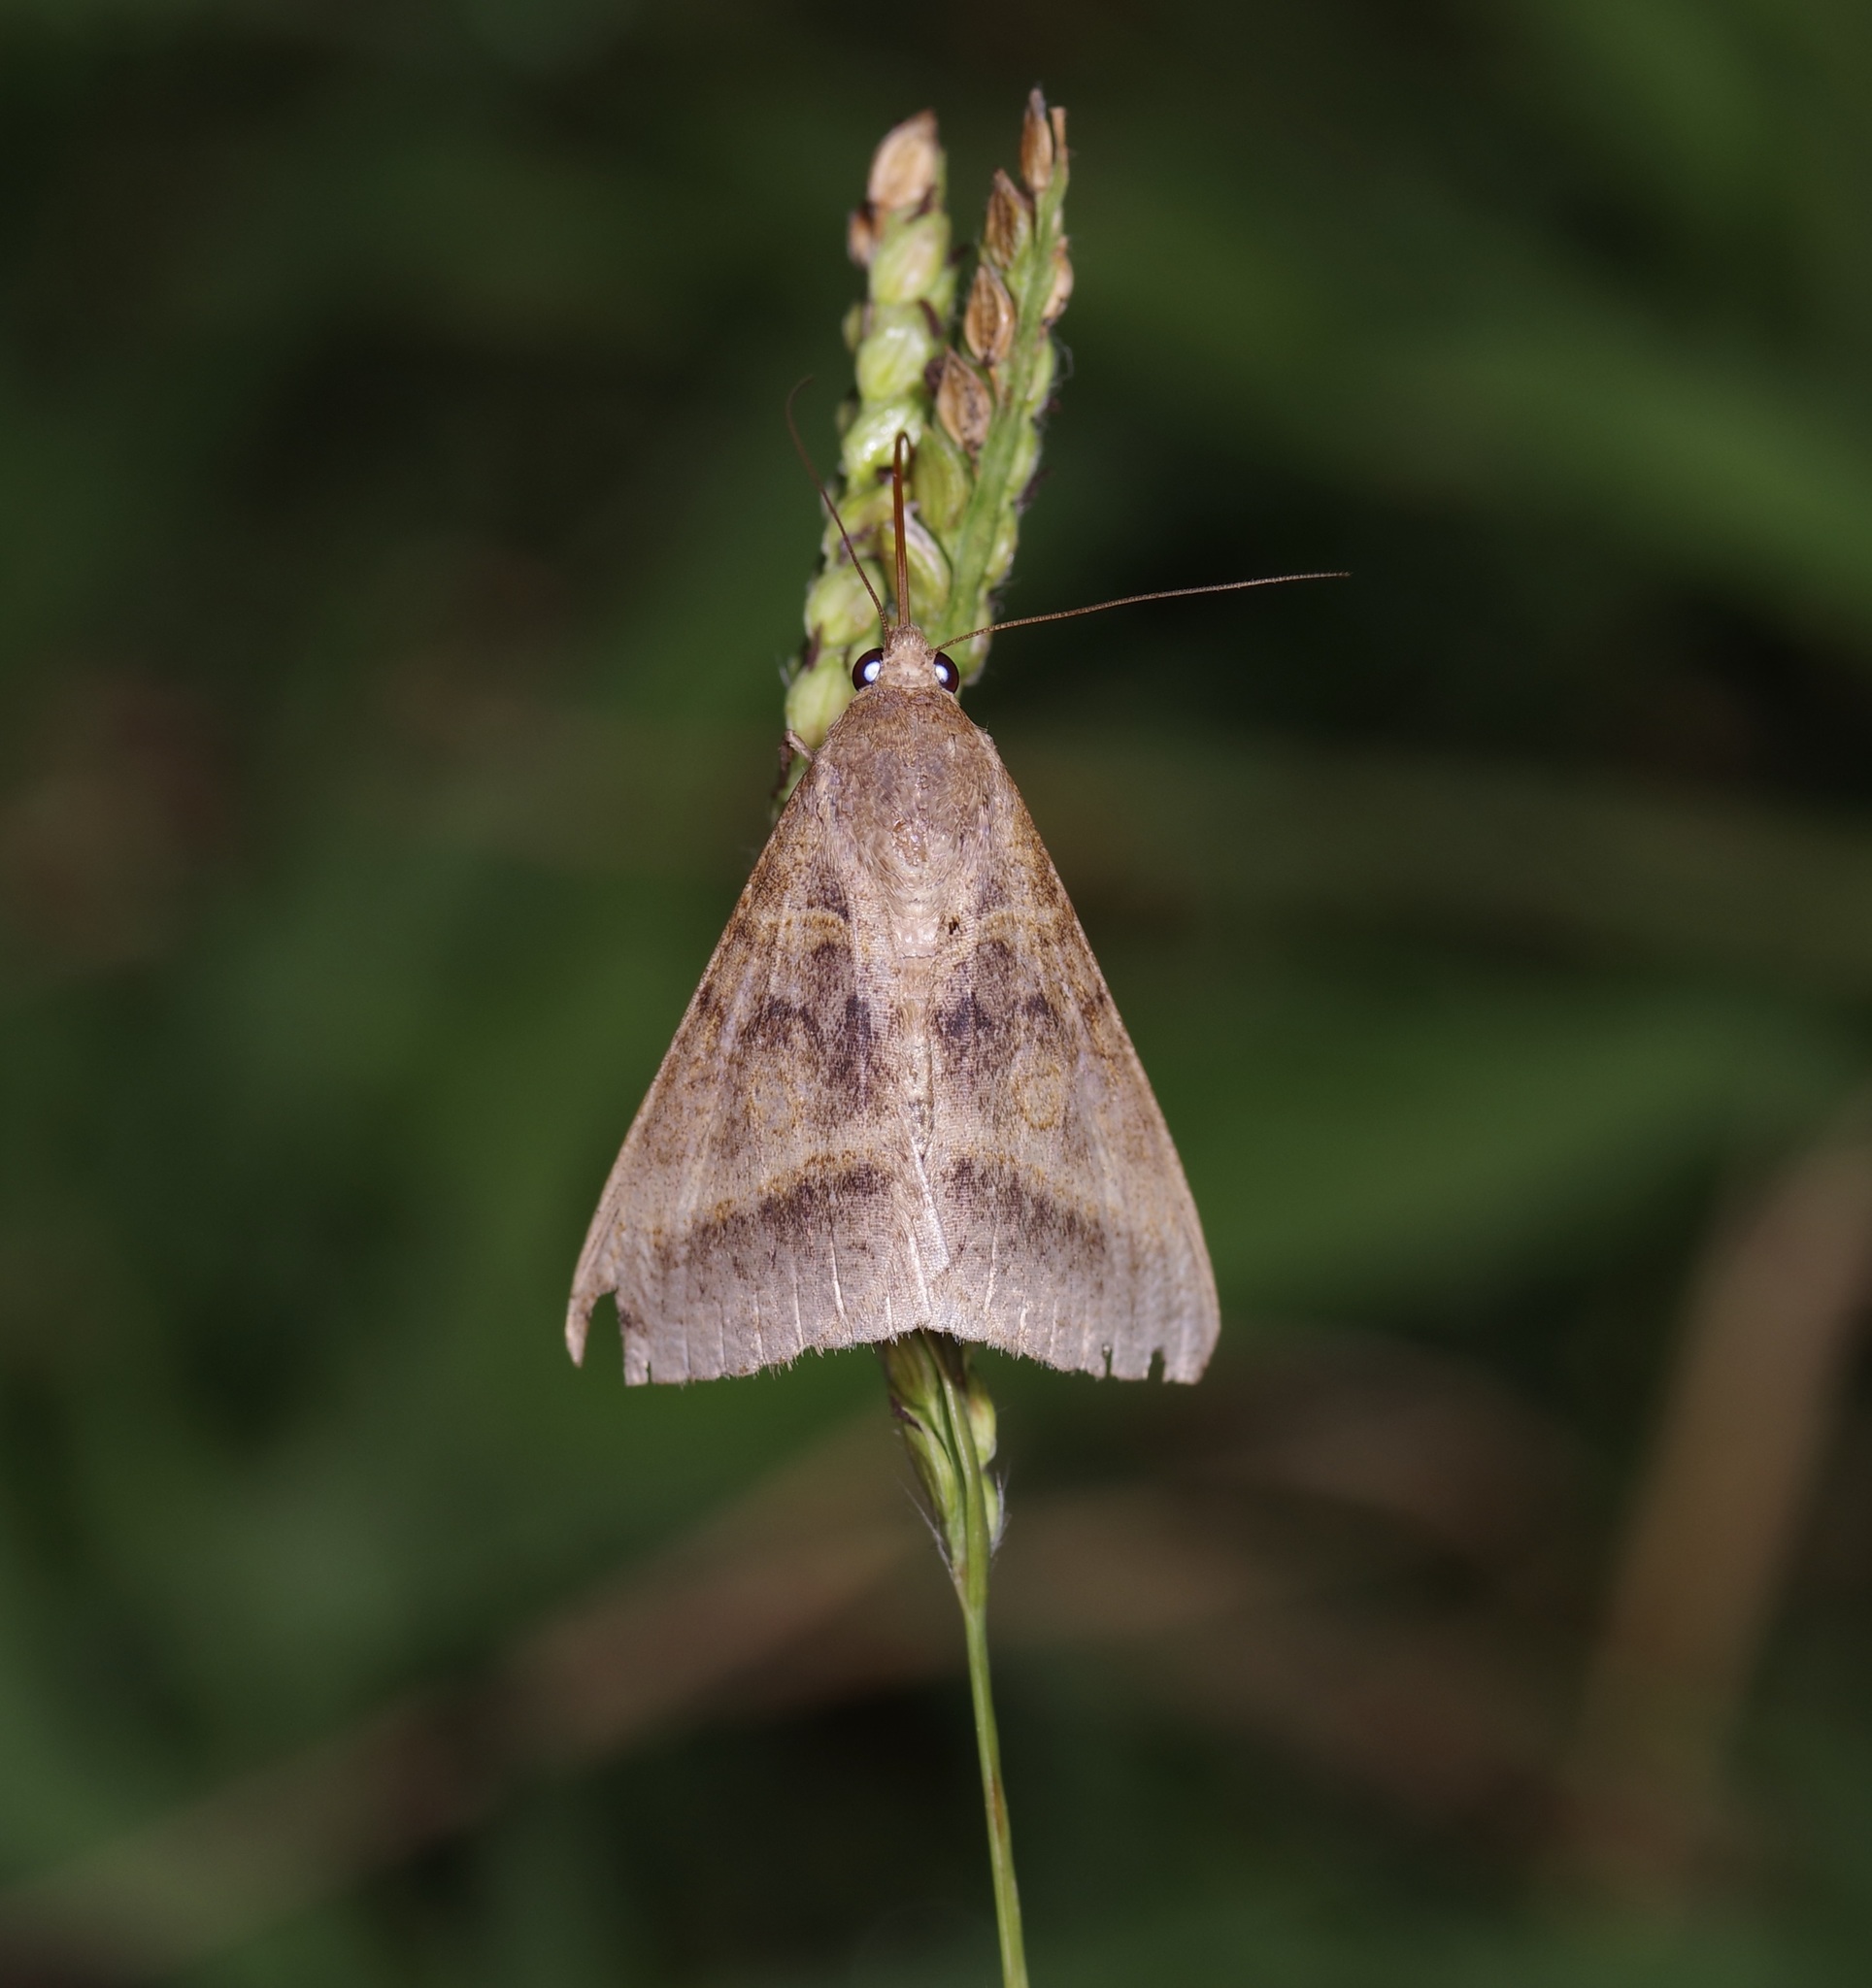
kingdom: Animalia
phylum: Arthropoda
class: Insecta
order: Lepidoptera
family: Erebidae
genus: Mocis
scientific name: Mocis latipes
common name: Striped grass looper
